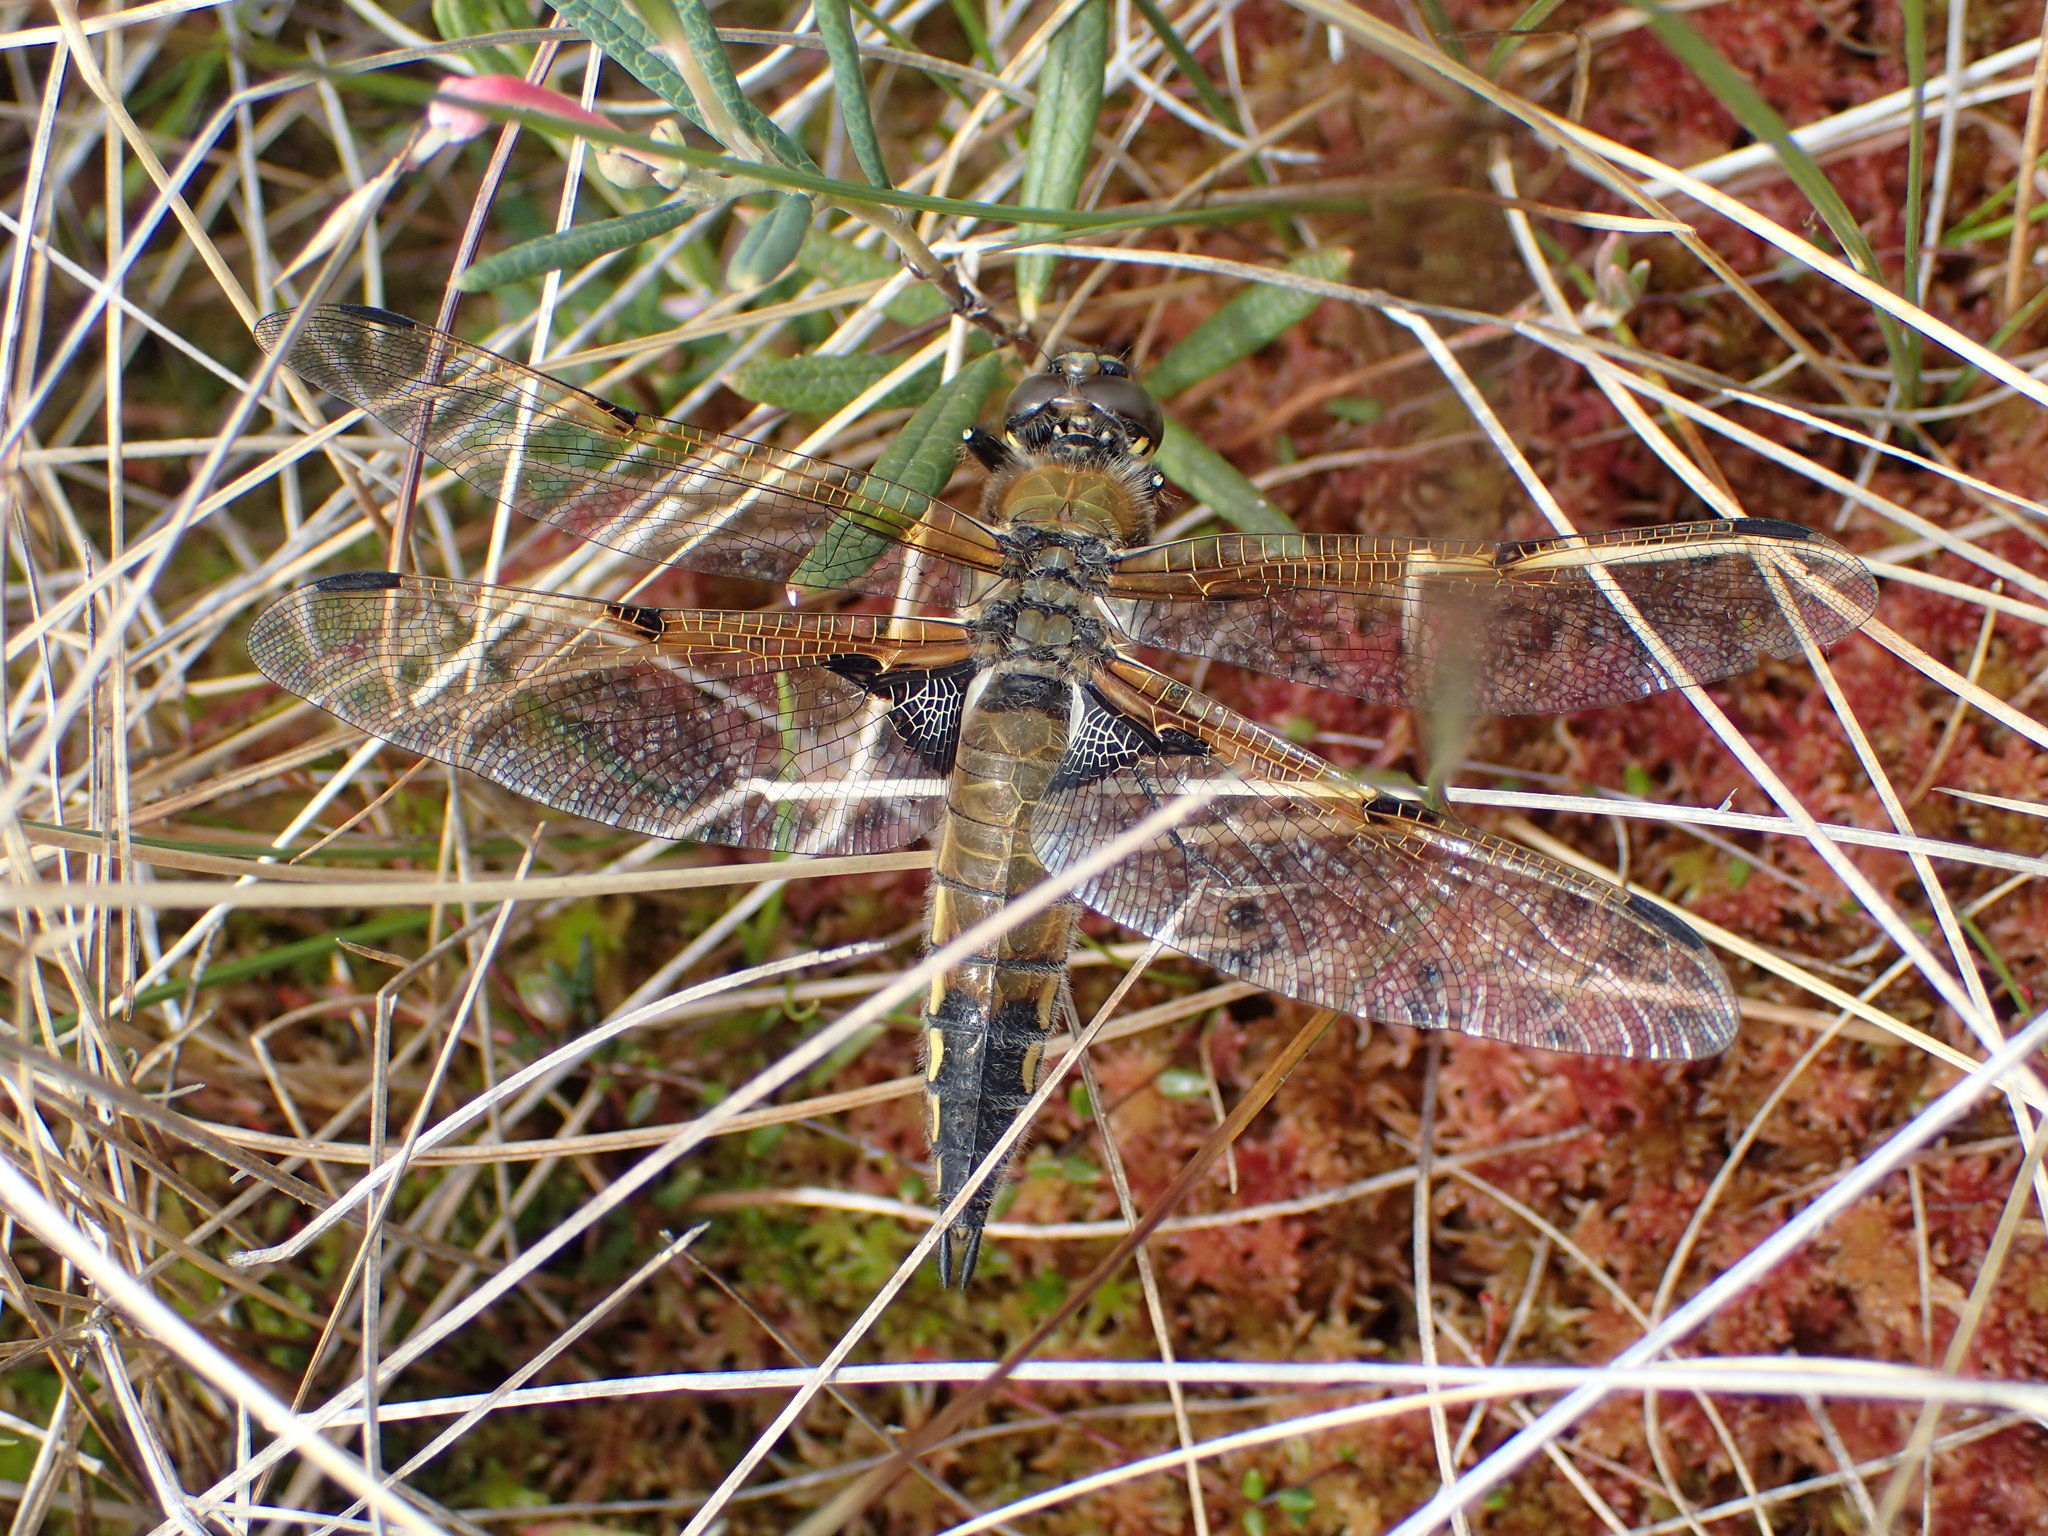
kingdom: Animalia
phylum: Arthropoda
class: Insecta
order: Odonata
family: Libellulidae
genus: Libellula
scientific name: Libellula quadrimaculata
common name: Four-spotted chaser
